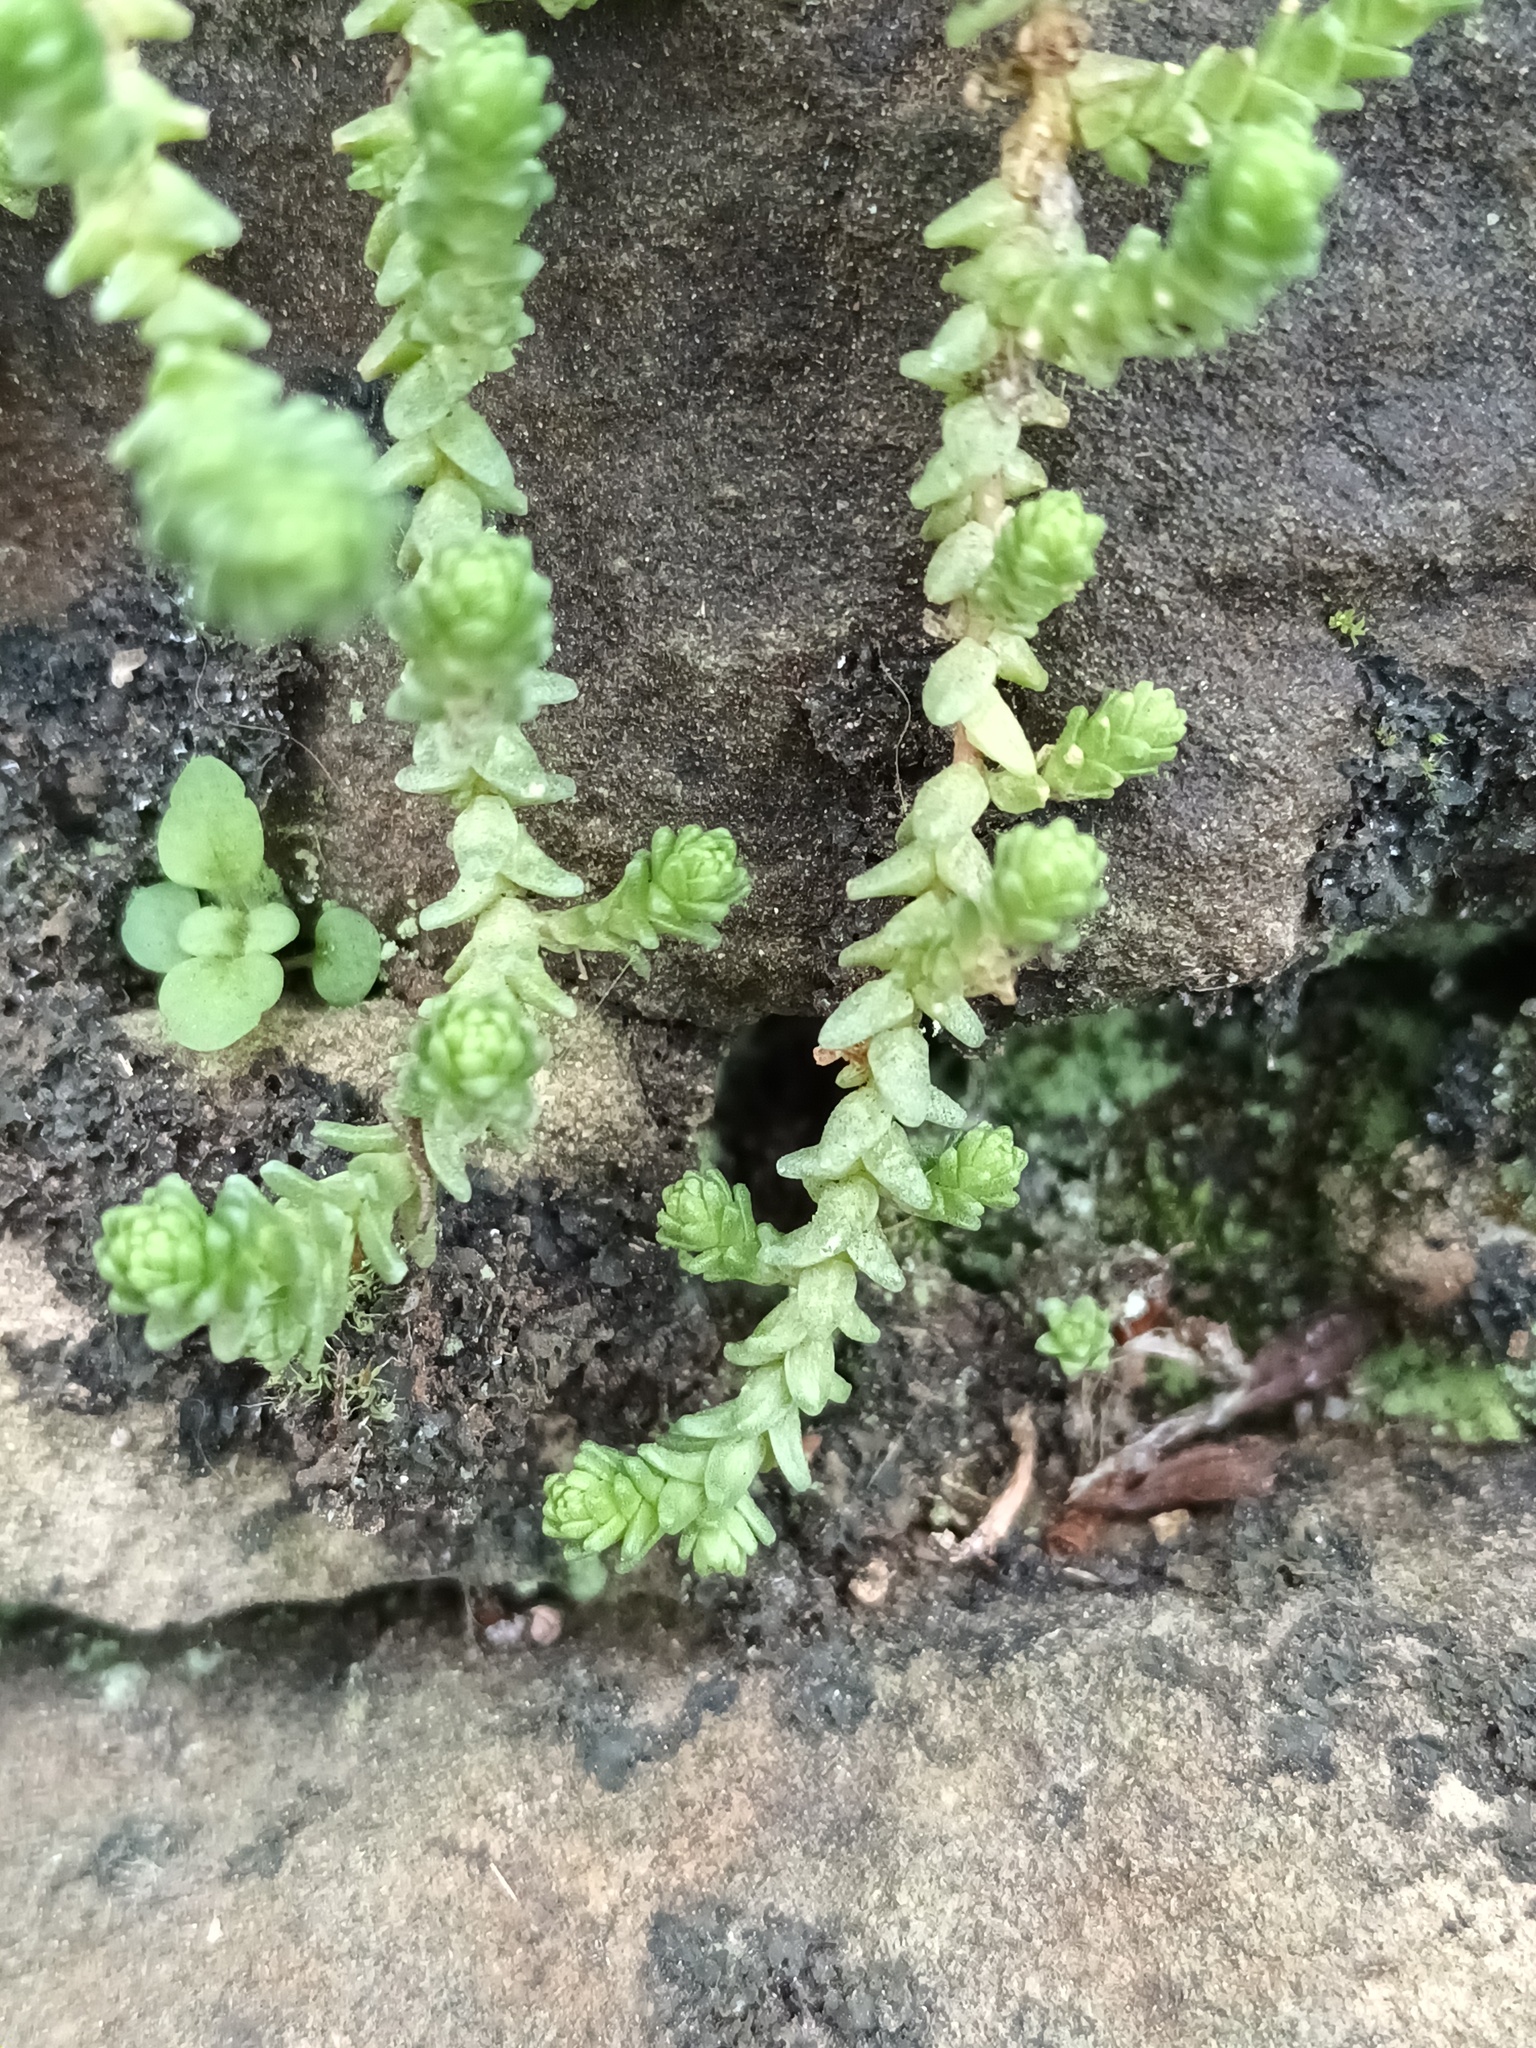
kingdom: Plantae
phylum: Tracheophyta
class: Magnoliopsida
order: Saxifragales
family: Crassulaceae
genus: Sedum
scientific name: Sedum acre
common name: Biting stonecrop
